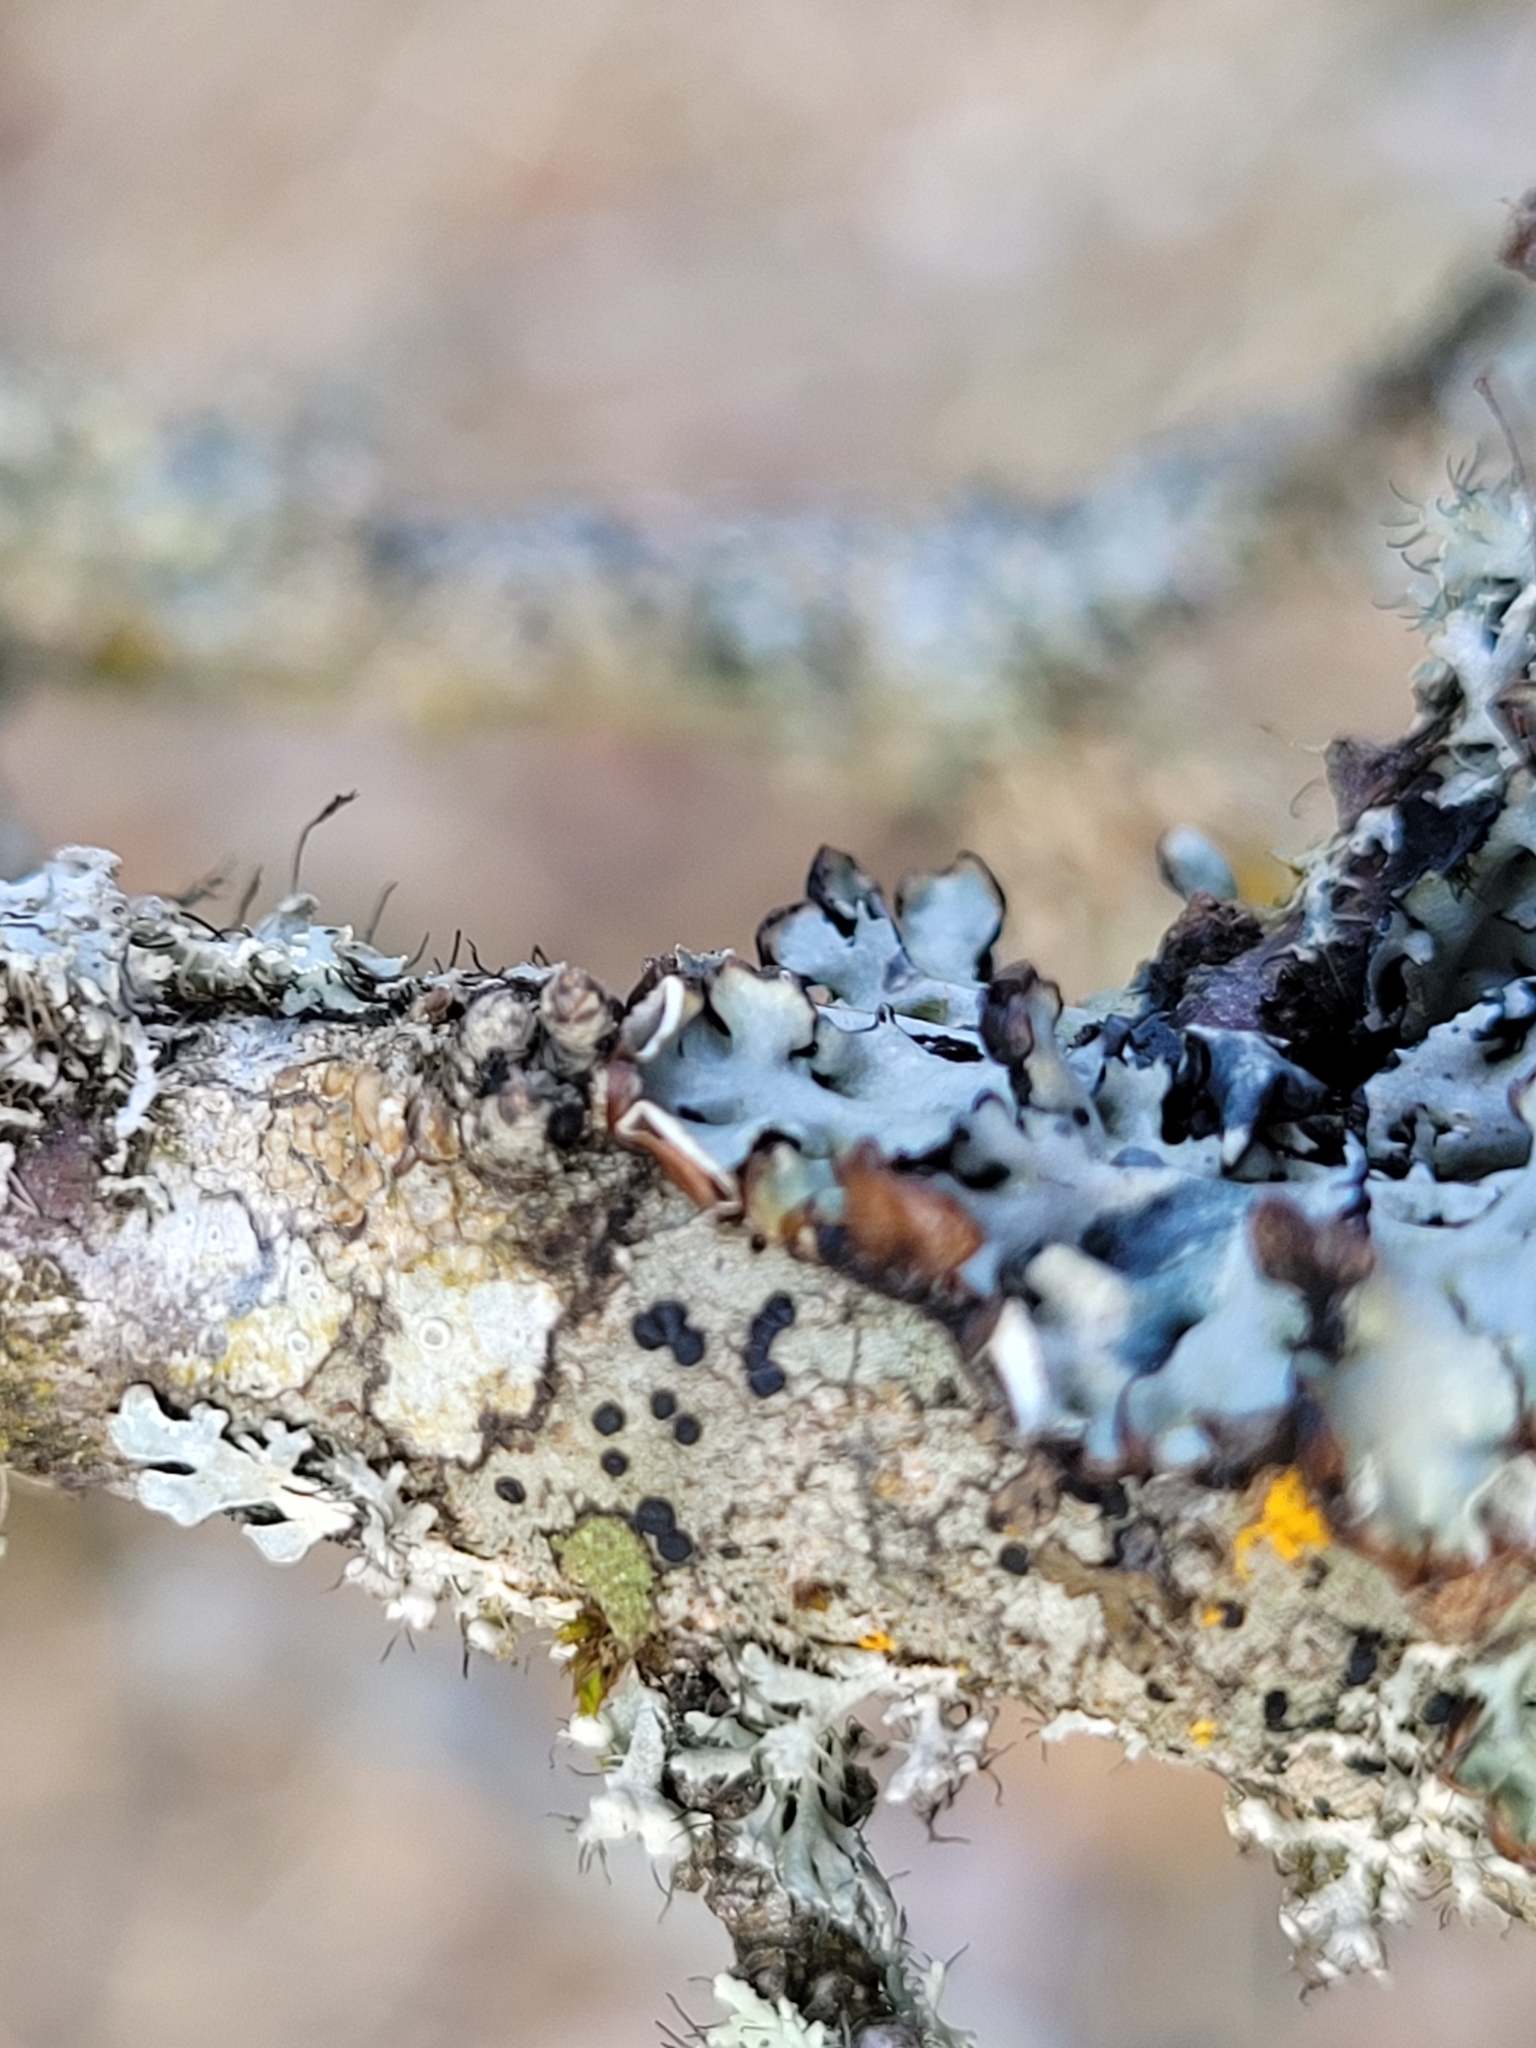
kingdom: Fungi
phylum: Ascomycota
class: Lecanoromycetes
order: Lecanorales
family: Parmeliaceae
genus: Hypogymnia
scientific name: Hypogymnia physodes
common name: Dark crottle
